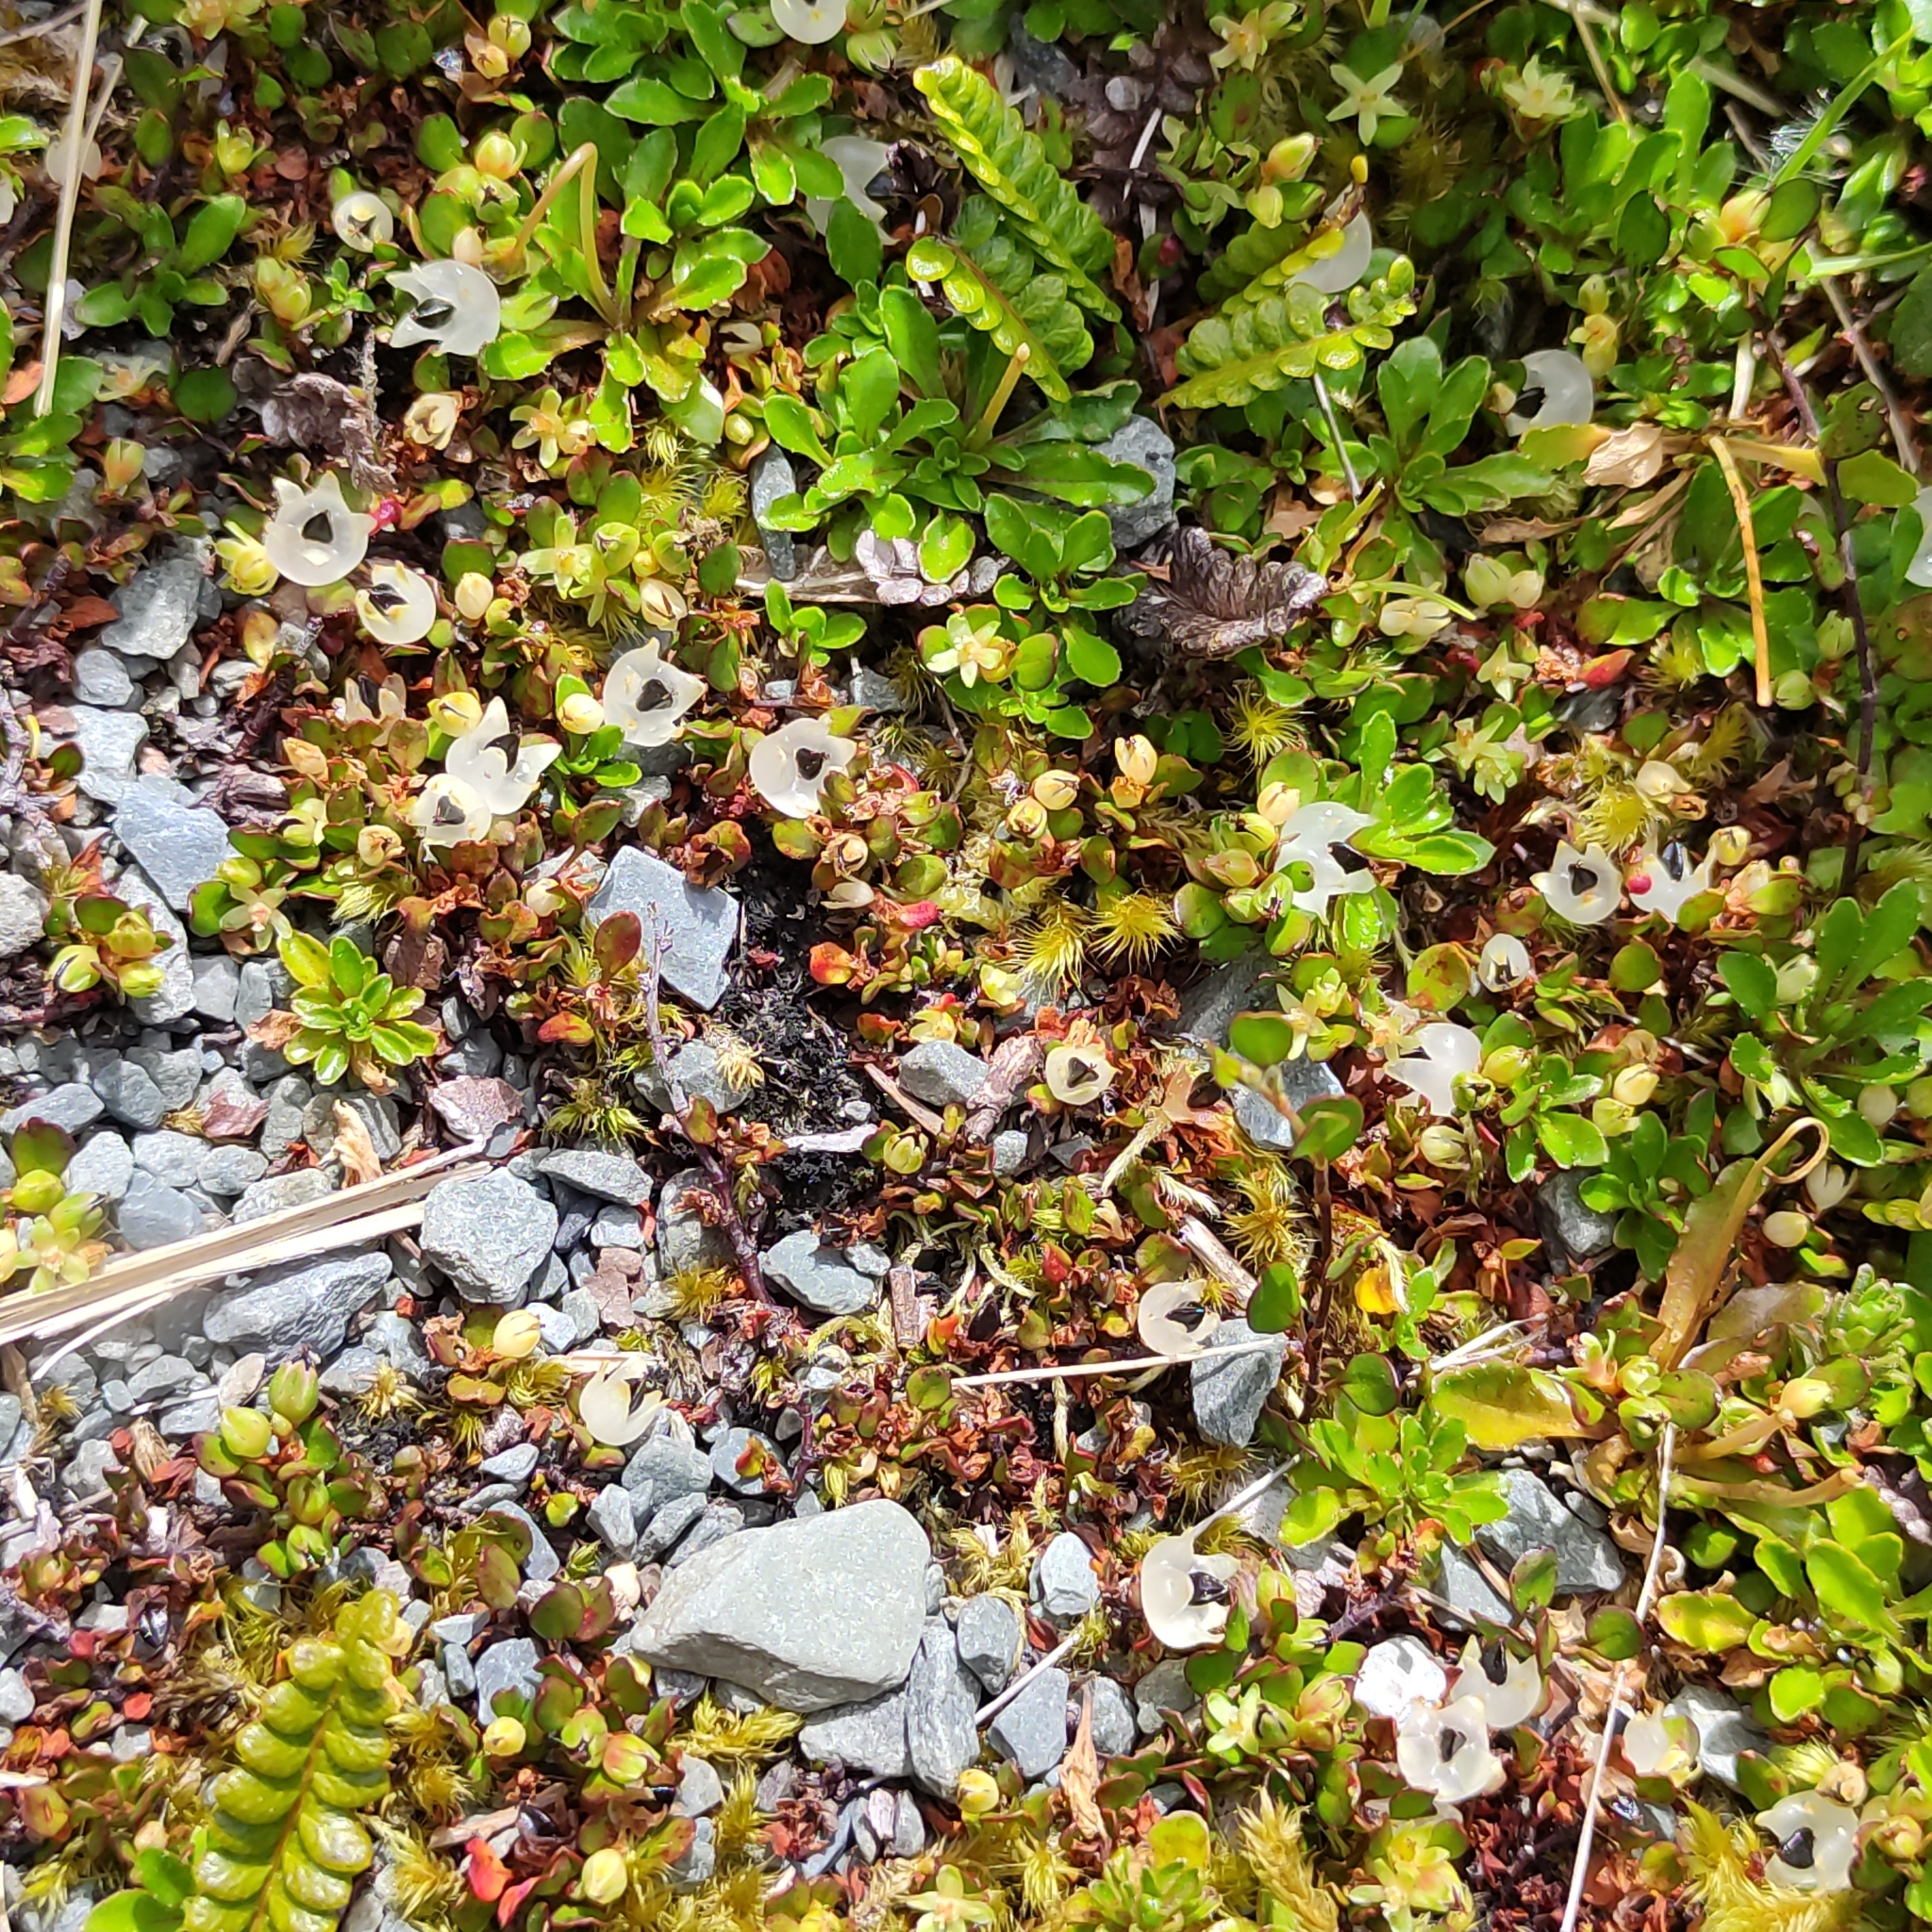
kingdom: Plantae
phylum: Tracheophyta
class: Magnoliopsida
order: Caryophyllales
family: Polygonaceae
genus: Muehlenbeckia
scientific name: Muehlenbeckia axillaris
